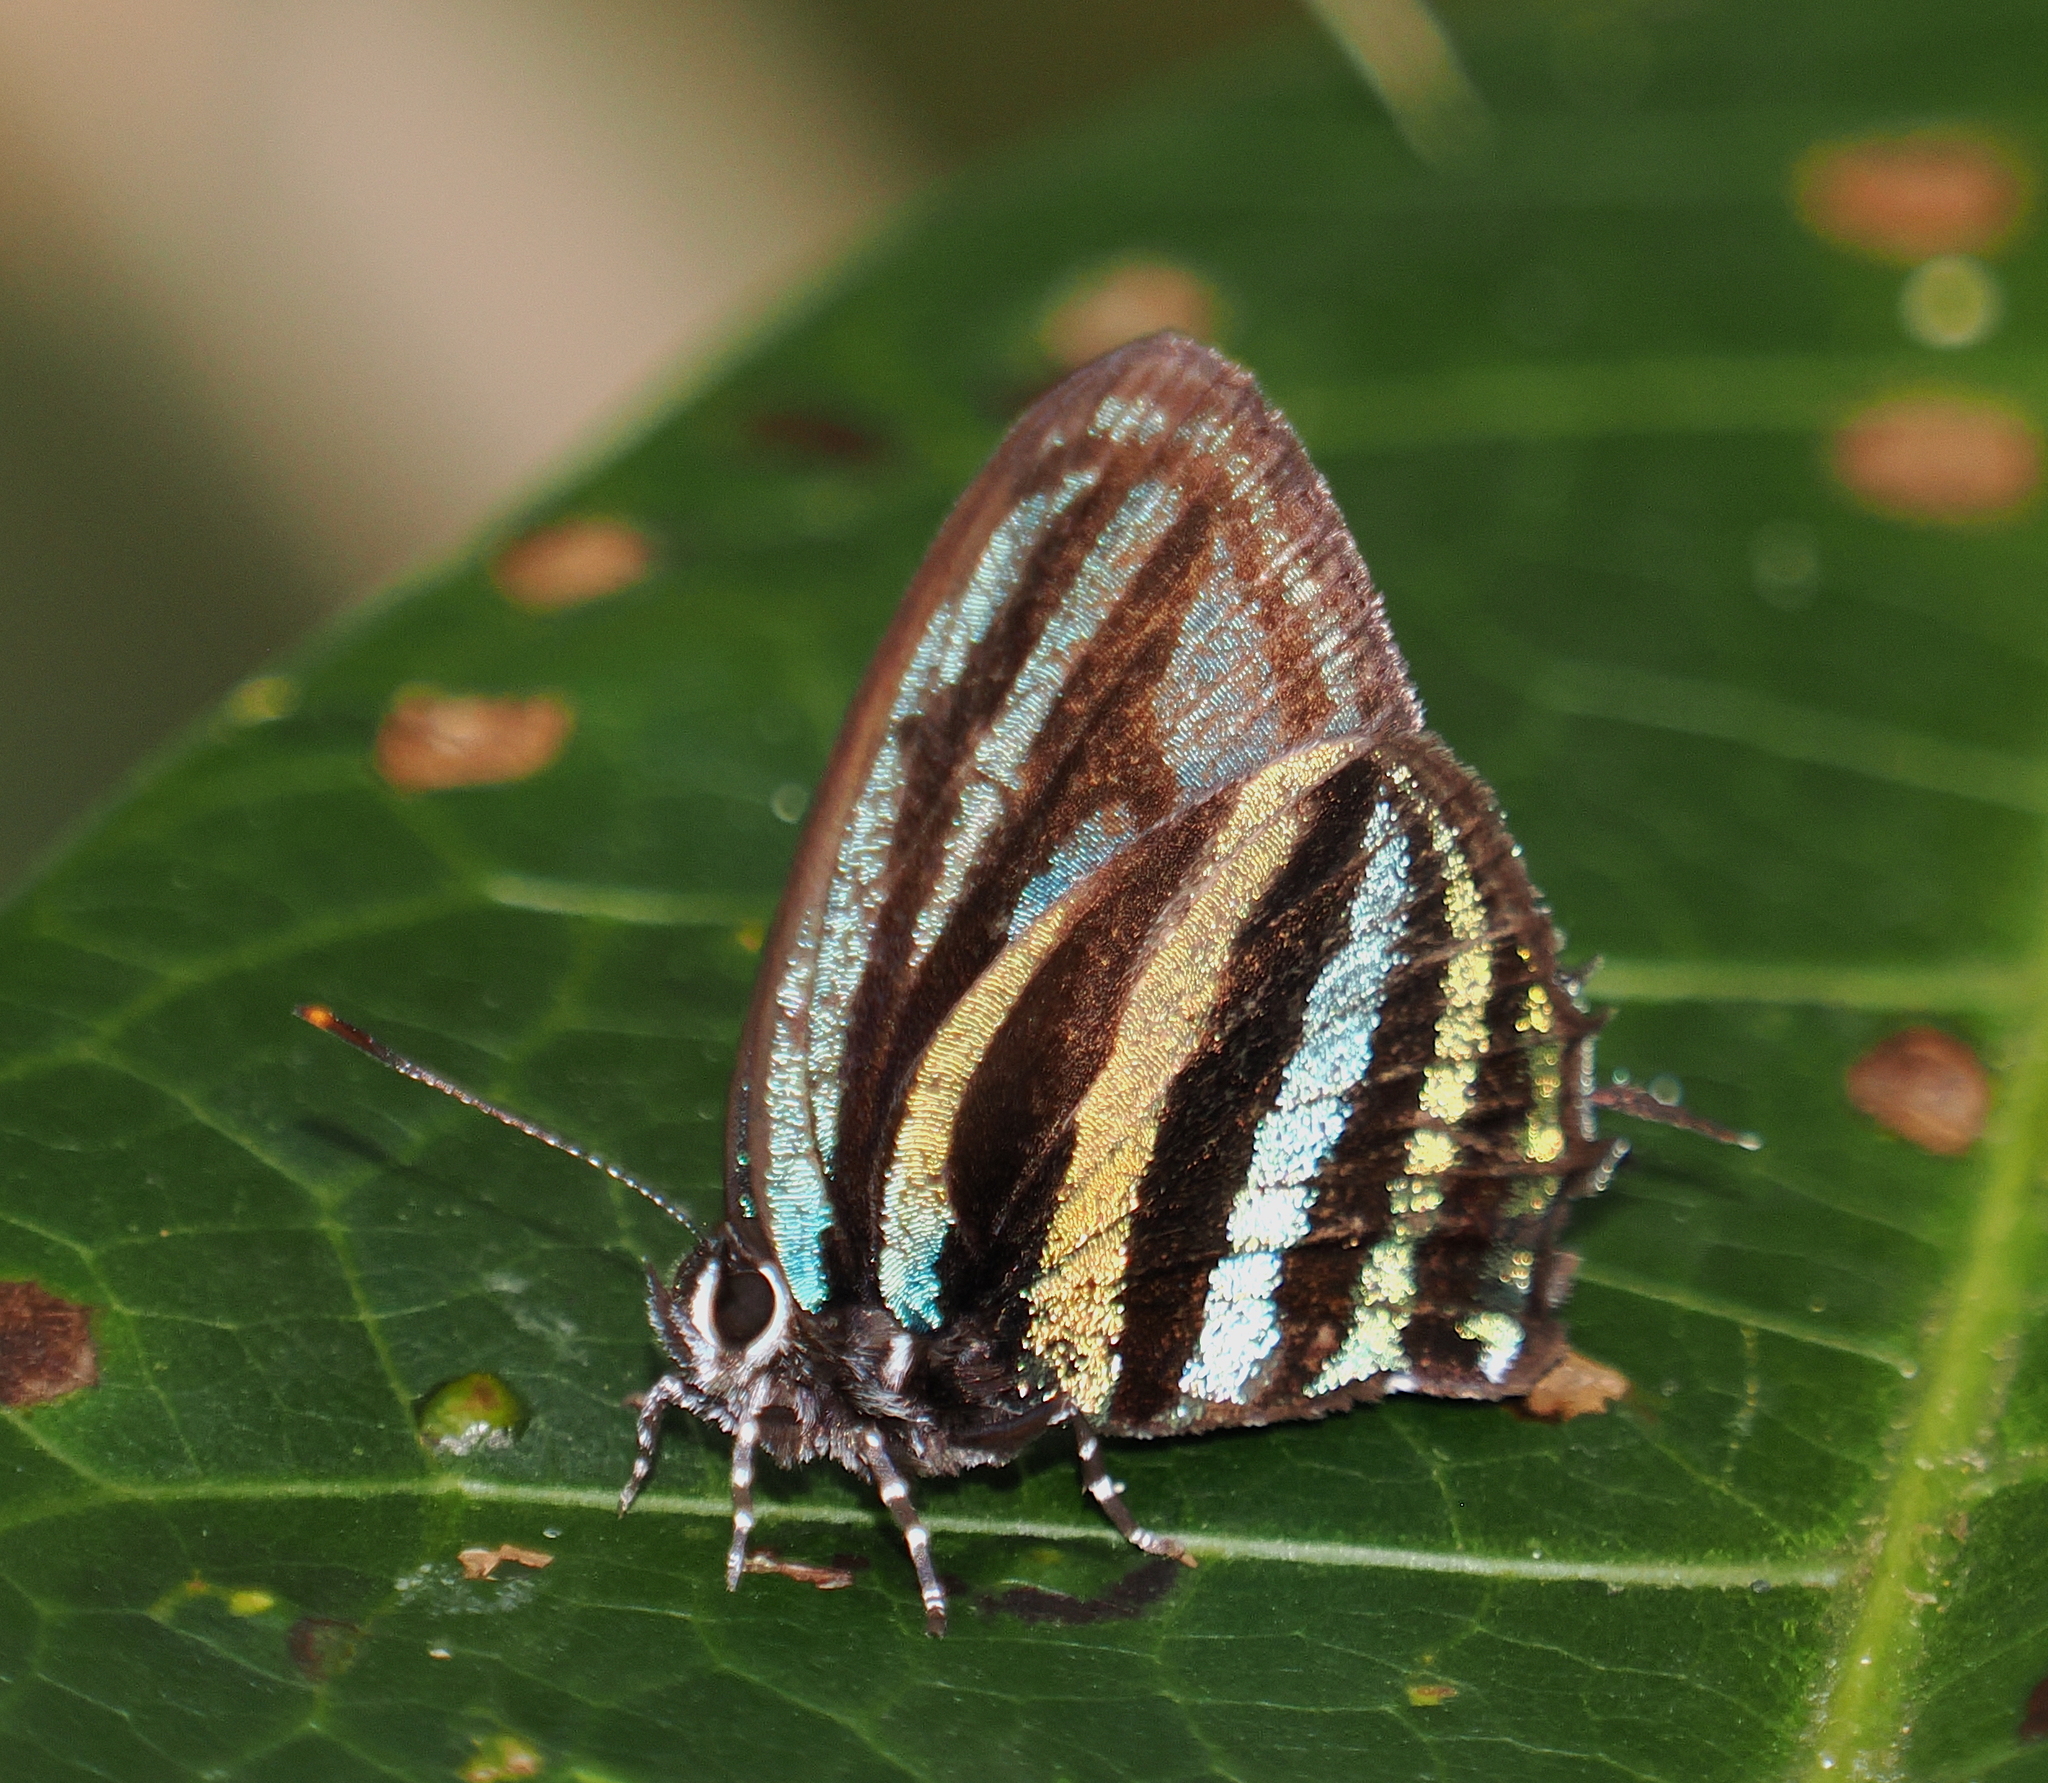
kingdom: Animalia
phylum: Arthropoda
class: Insecta
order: Lepidoptera
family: Lycaenidae
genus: Thestius
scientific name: Thestius
